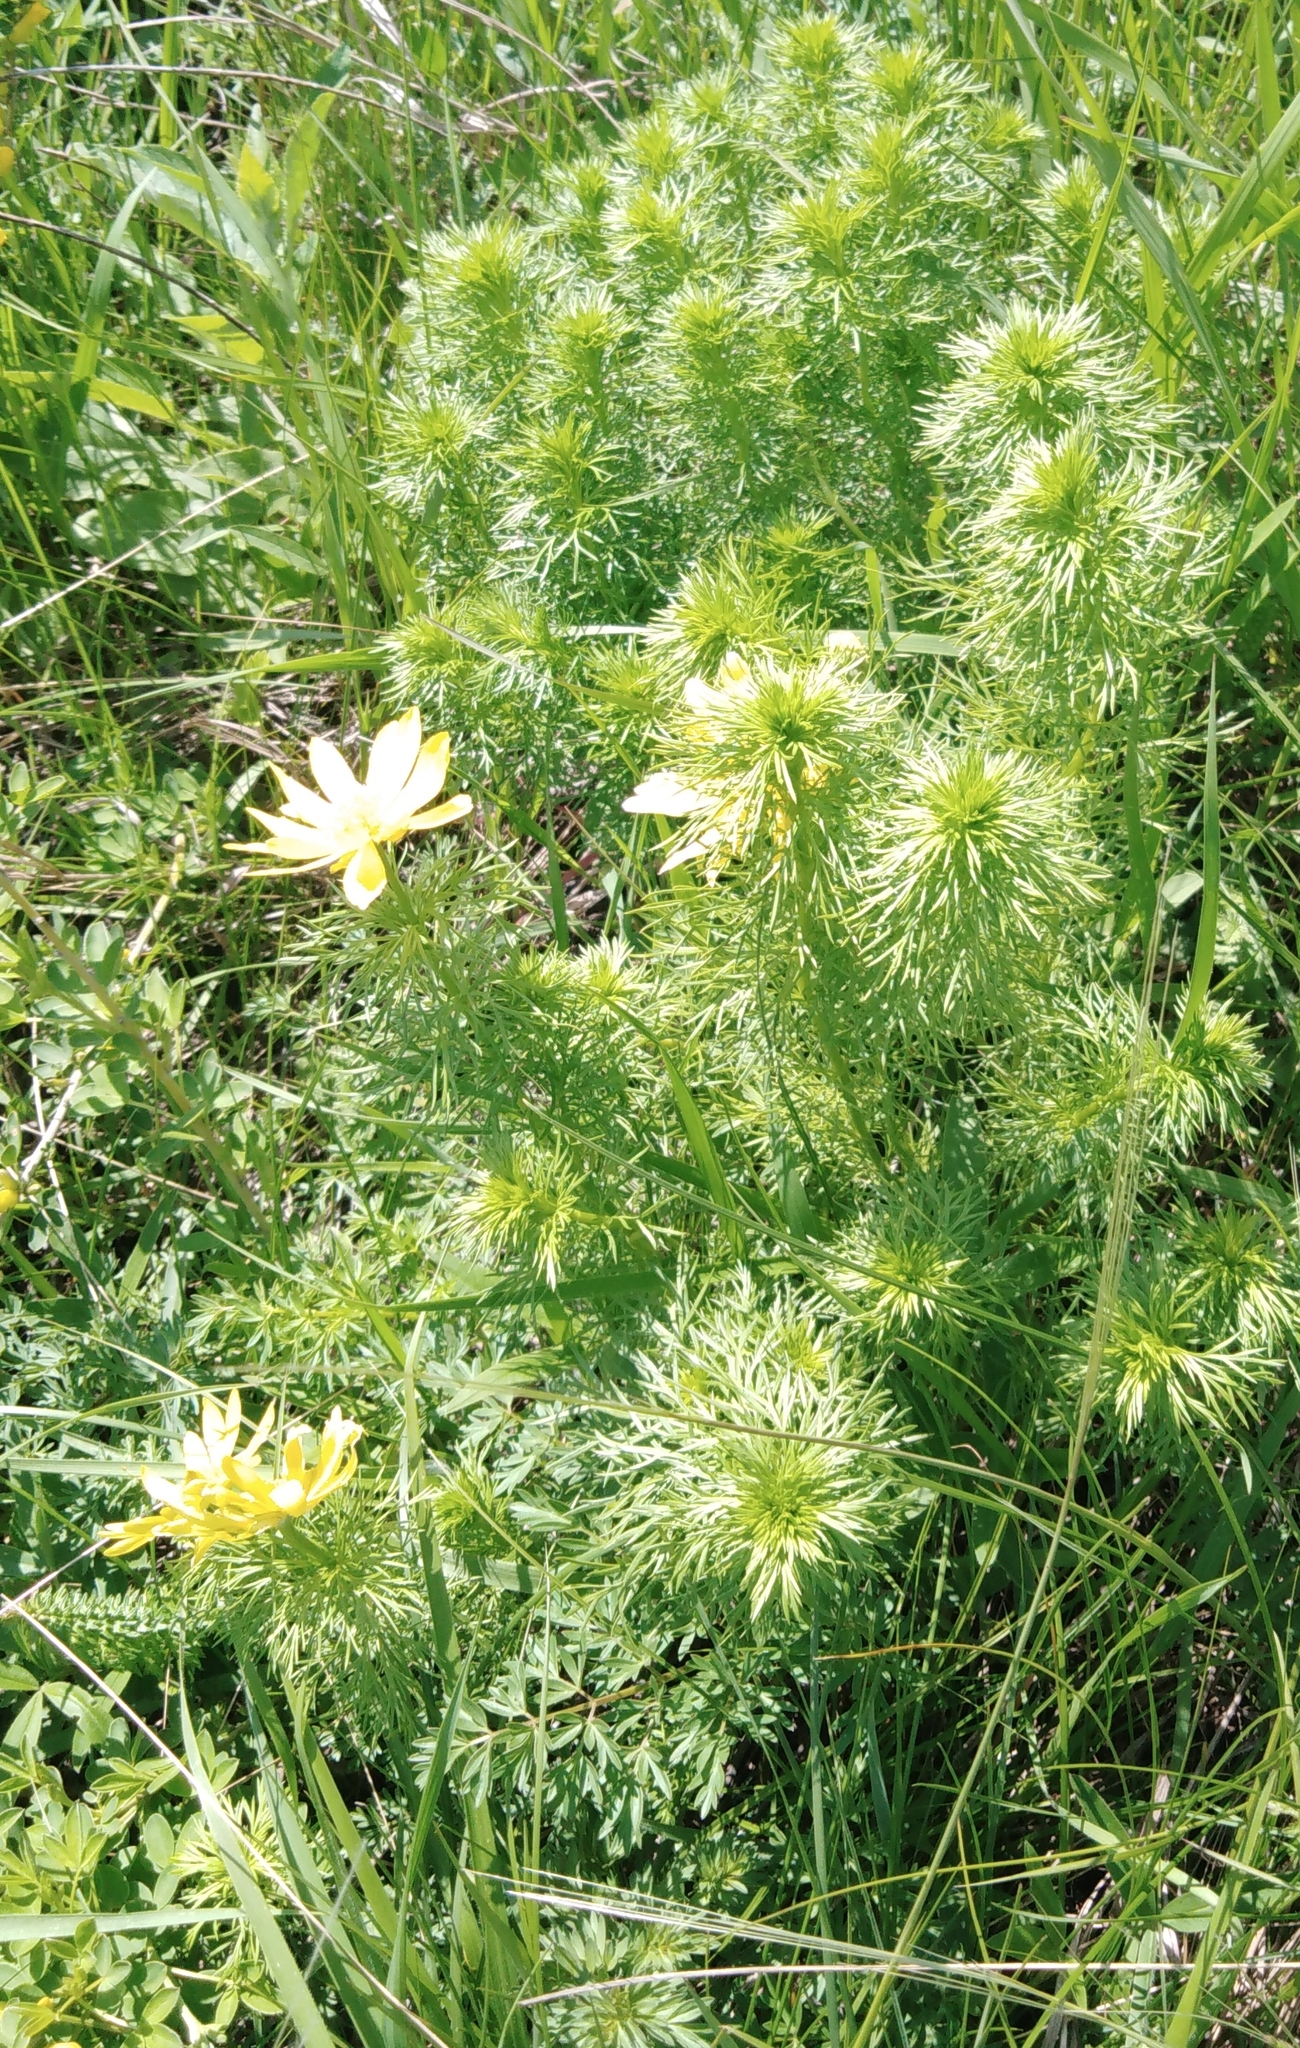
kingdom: Plantae
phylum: Tracheophyta
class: Magnoliopsida
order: Ranunculales
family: Ranunculaceae
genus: Adonis
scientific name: Adonis vernalis
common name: Yellow pheasants-eye
